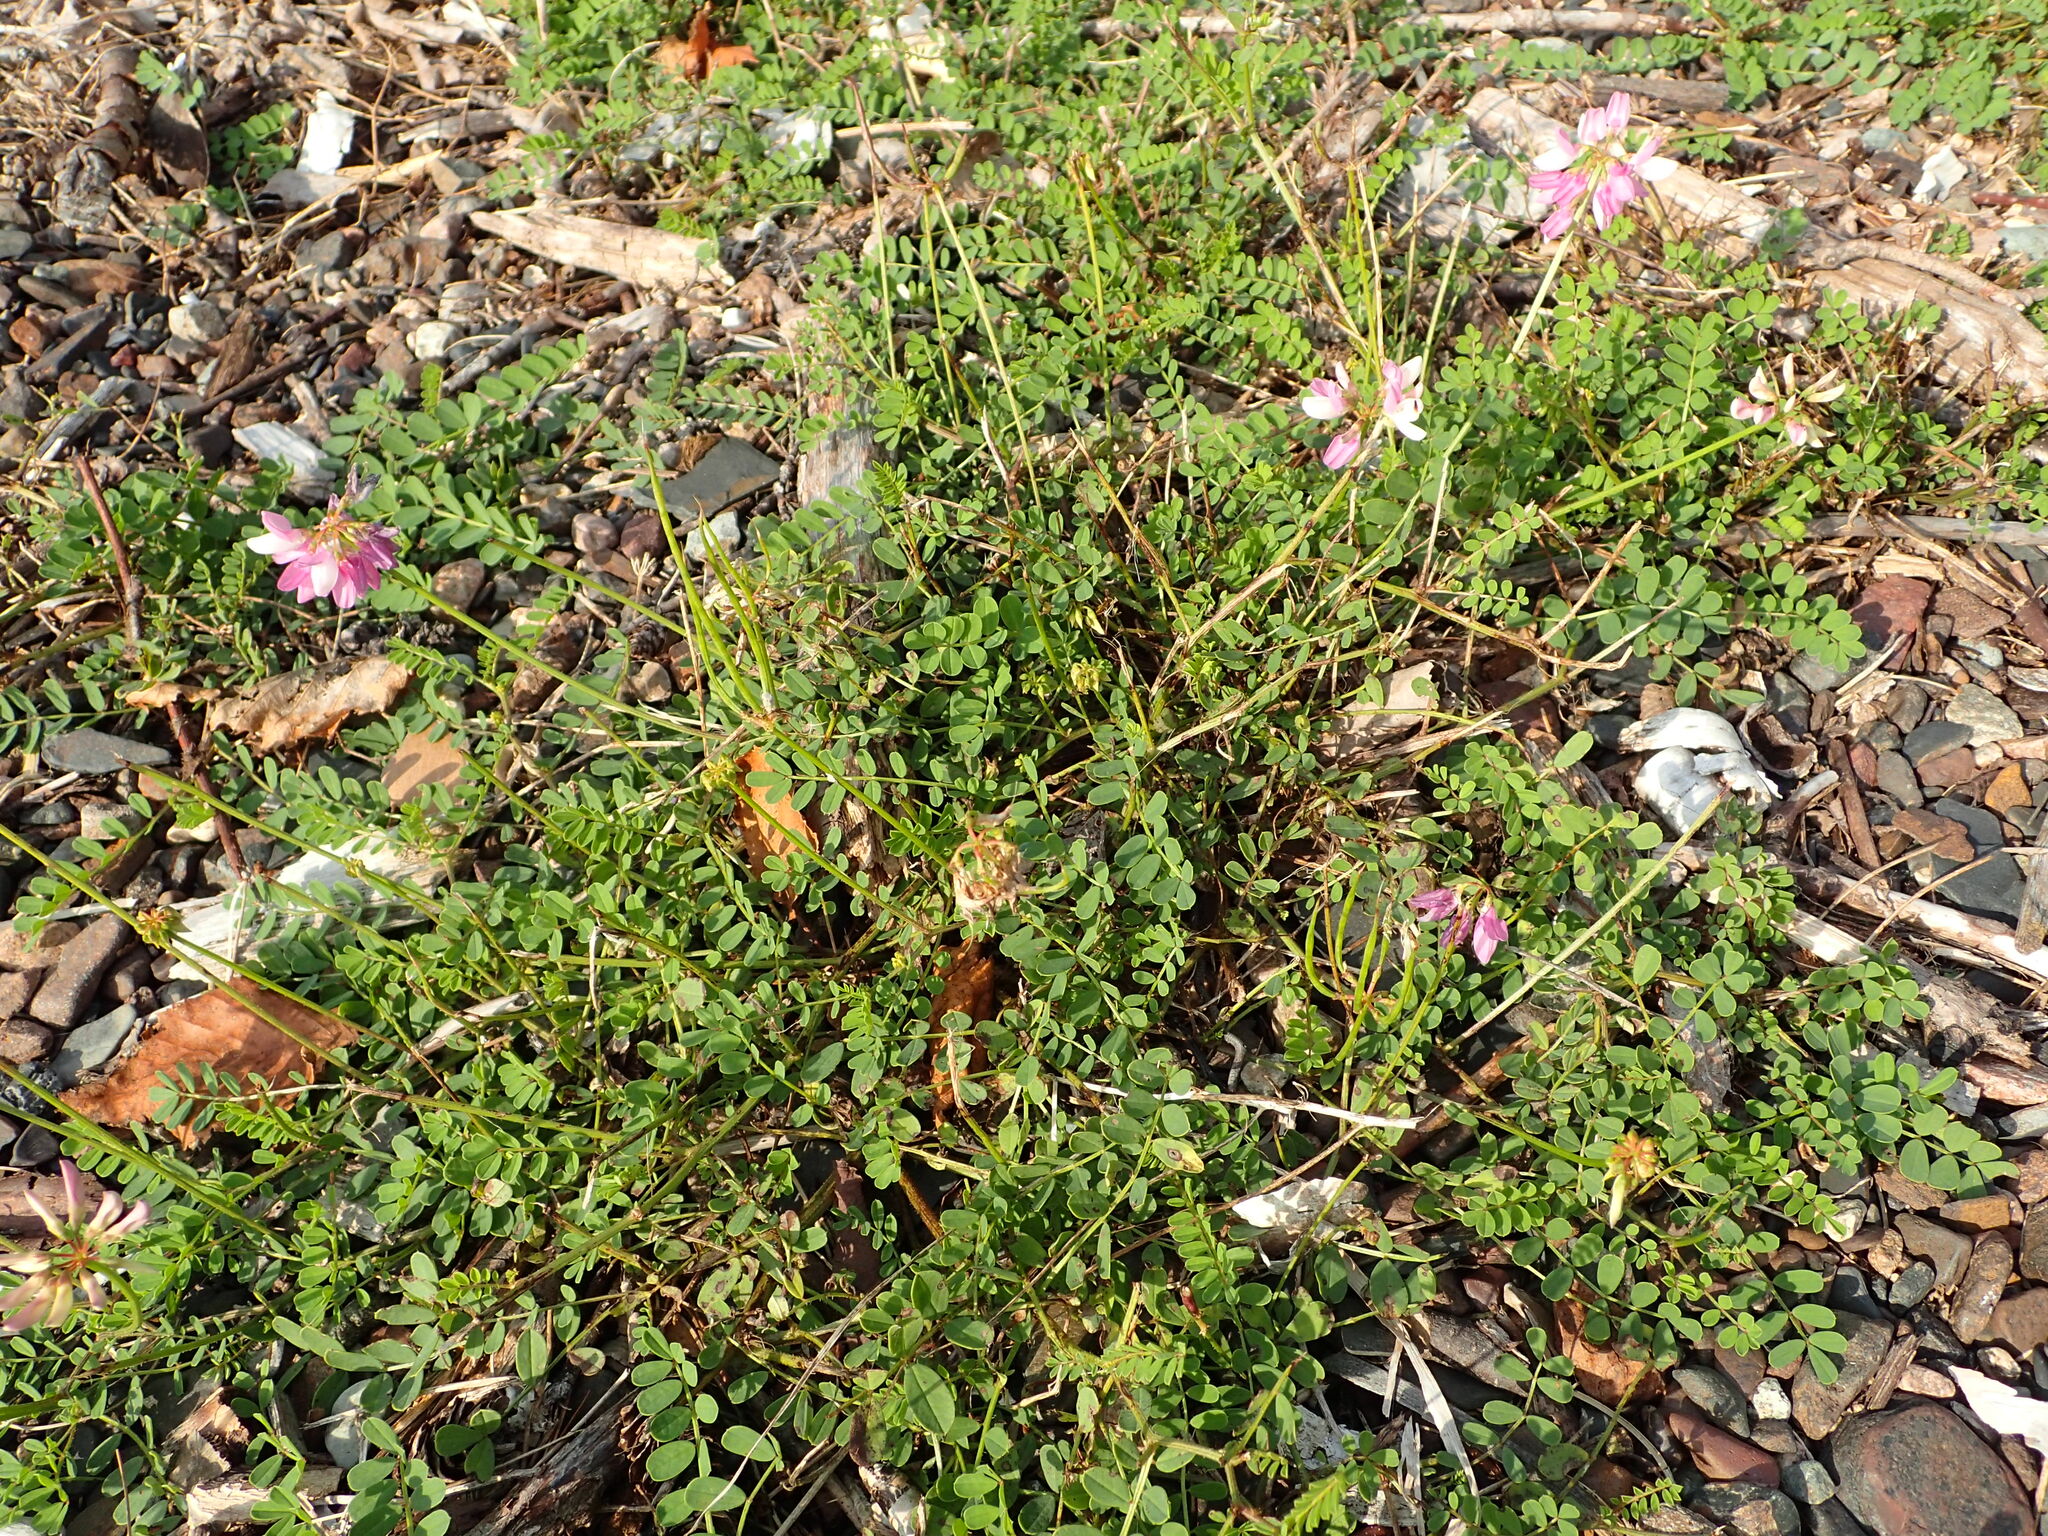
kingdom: Plantae
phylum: Tracheophyta
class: Magnoliopsida
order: Fabales
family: Fabaceae
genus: Coronilla
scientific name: Coronilla varia
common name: Crownvetch
